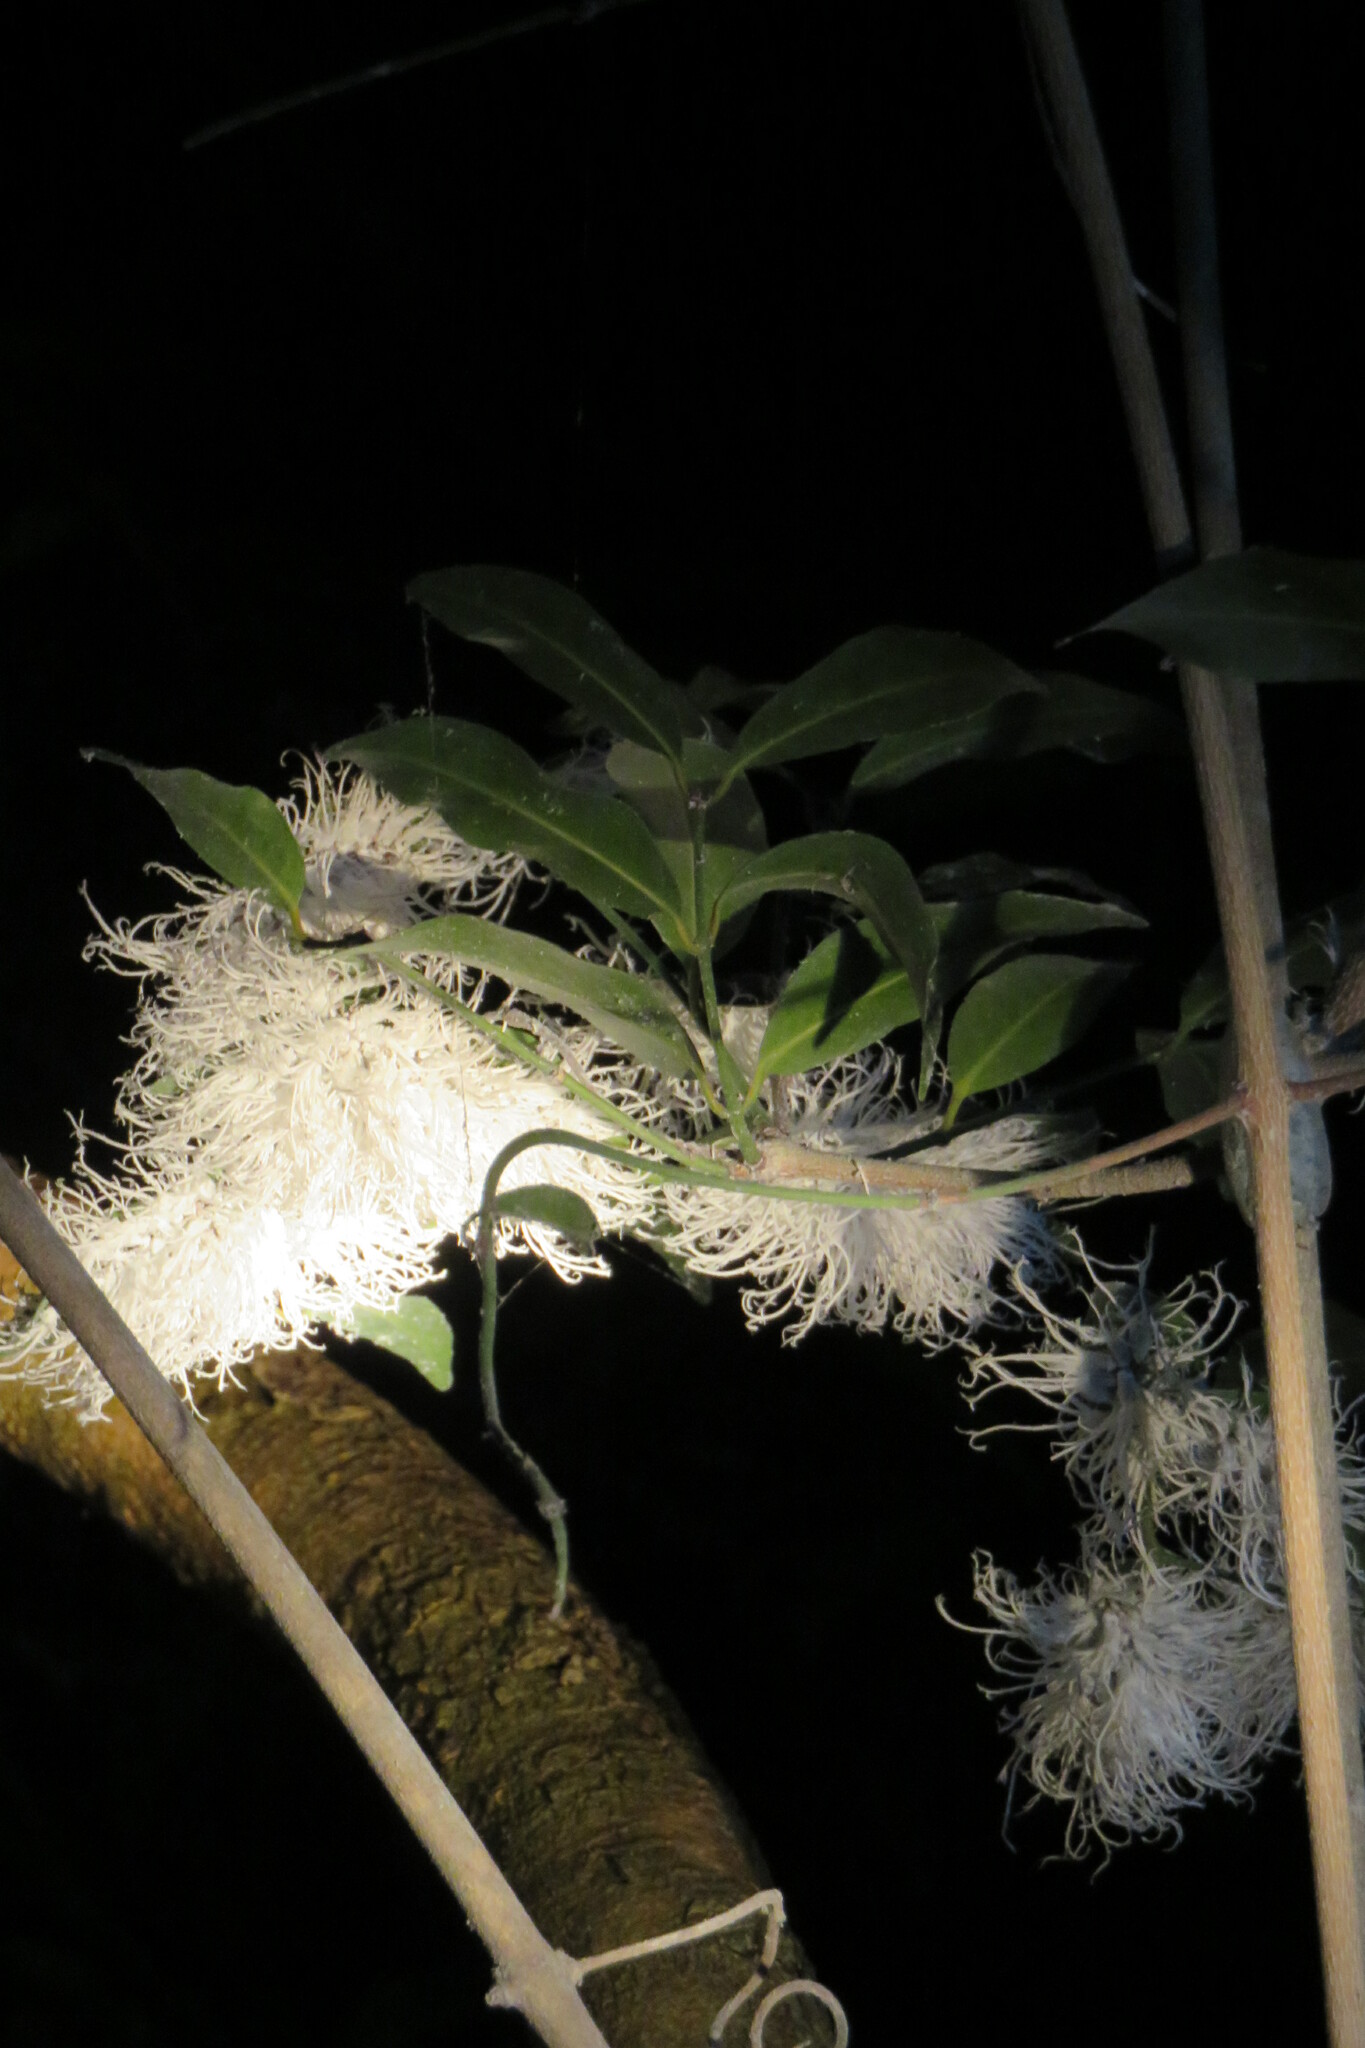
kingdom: Animalia
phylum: Arthropoda
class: Insecta
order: Hemiptera
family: Flatidae
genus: Flatida
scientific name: Flatida rosea
